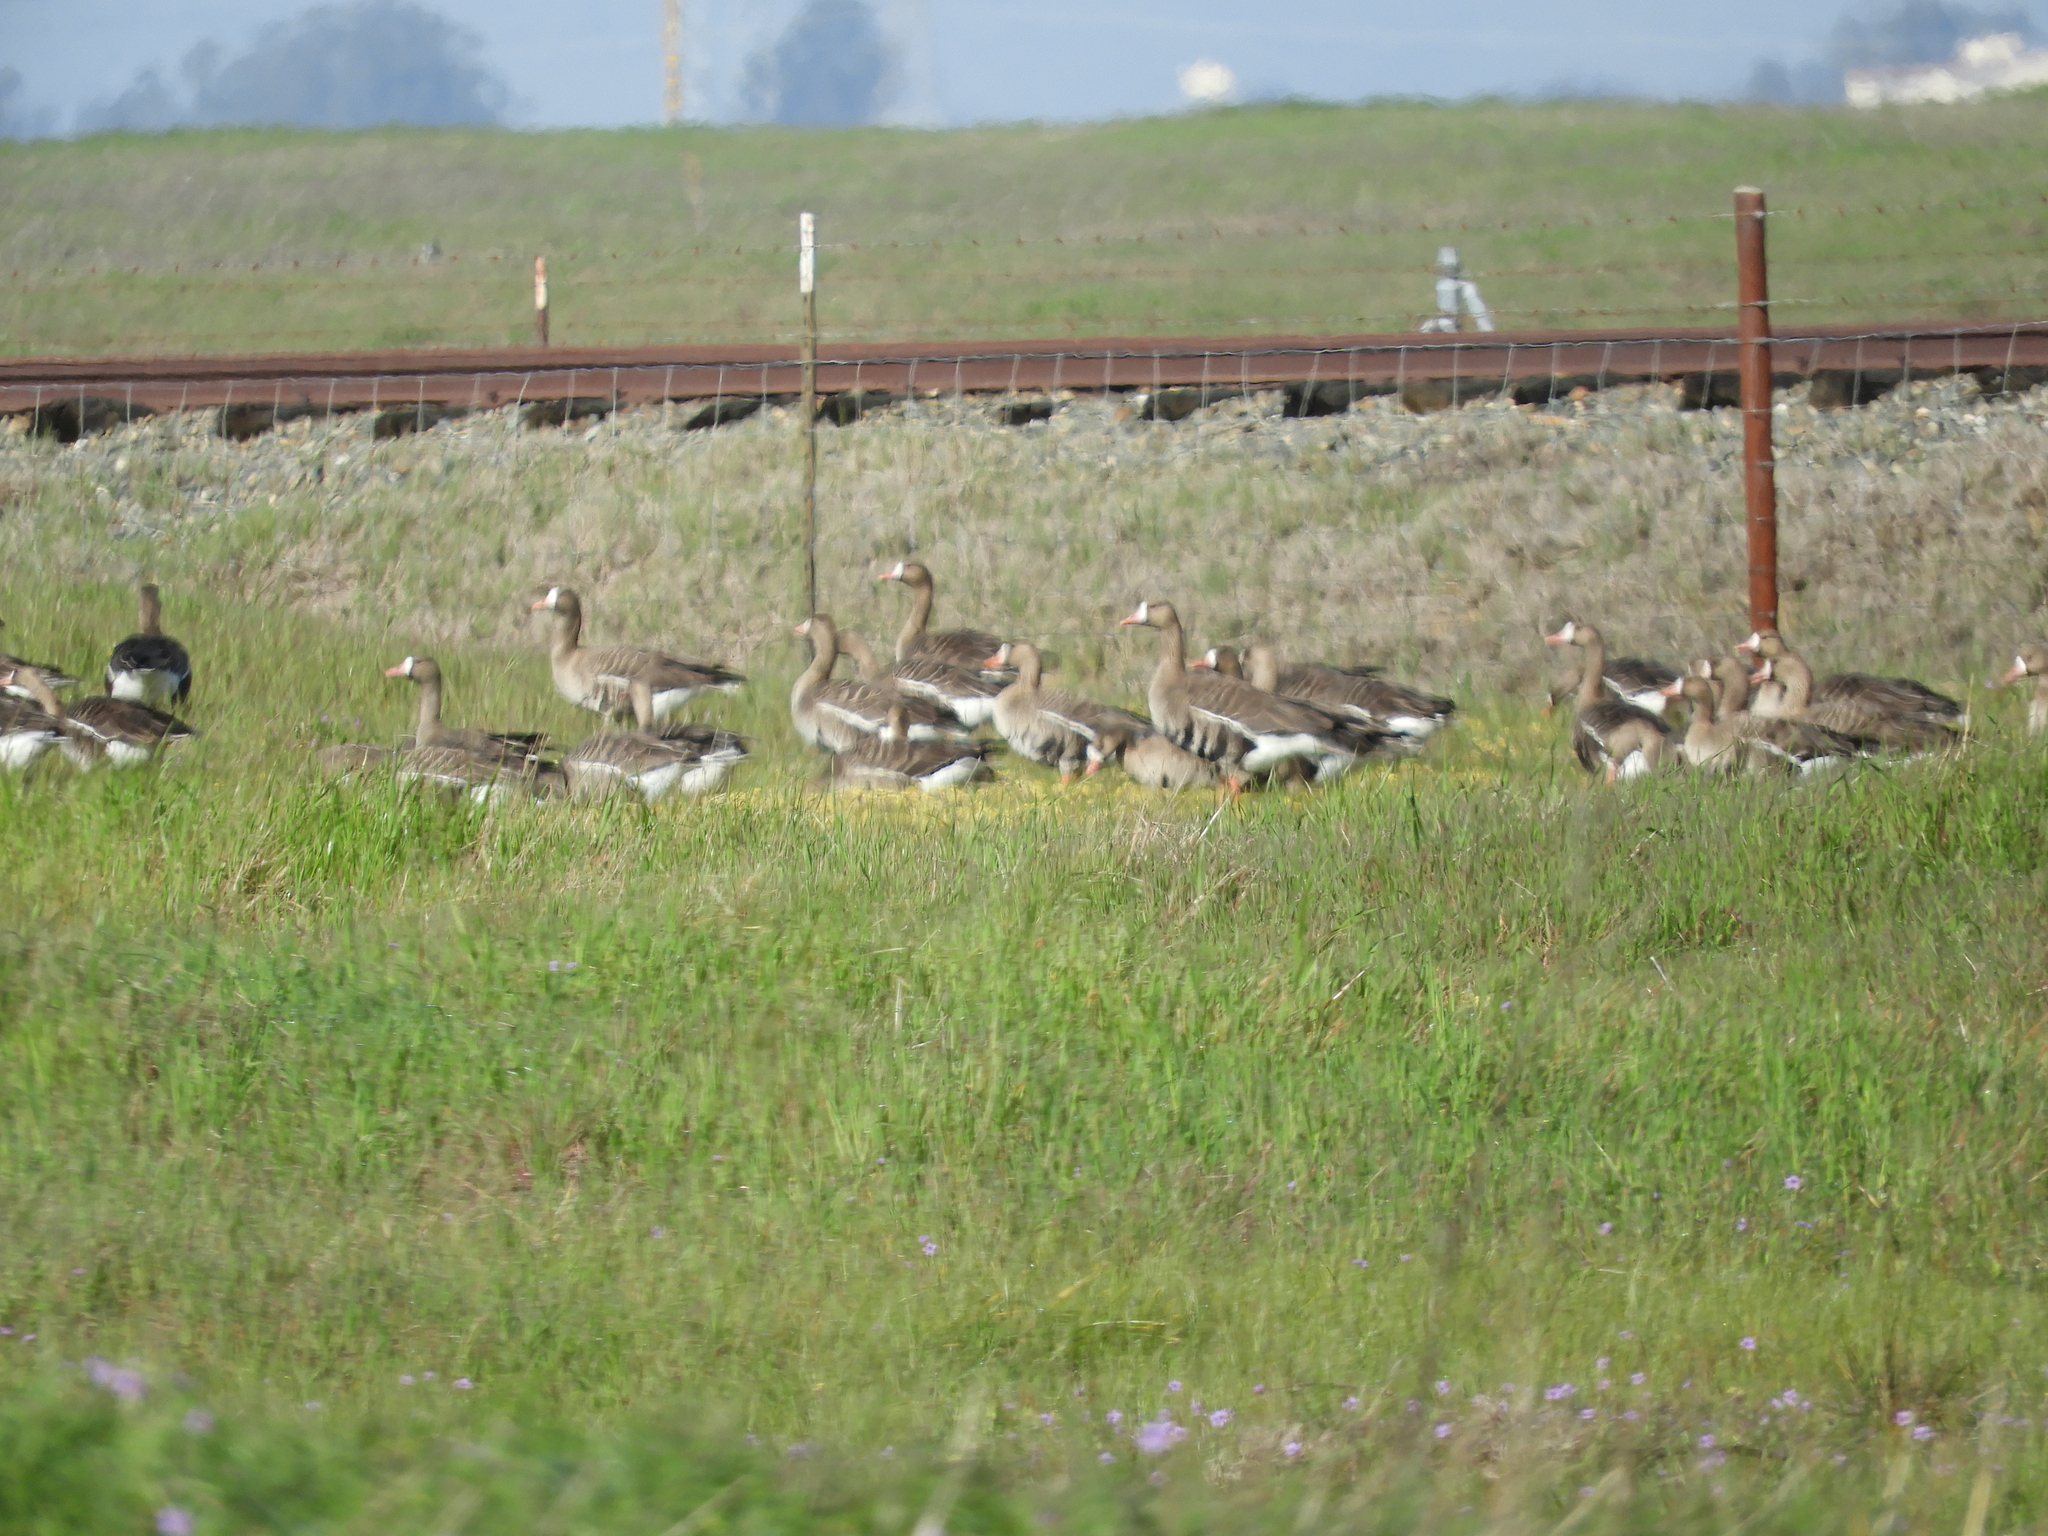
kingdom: Animalia
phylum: Chordata
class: Aves
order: Anseriformes
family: Anatidae
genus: Anser
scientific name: Anser albifrons
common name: Greater white-fronted goose
